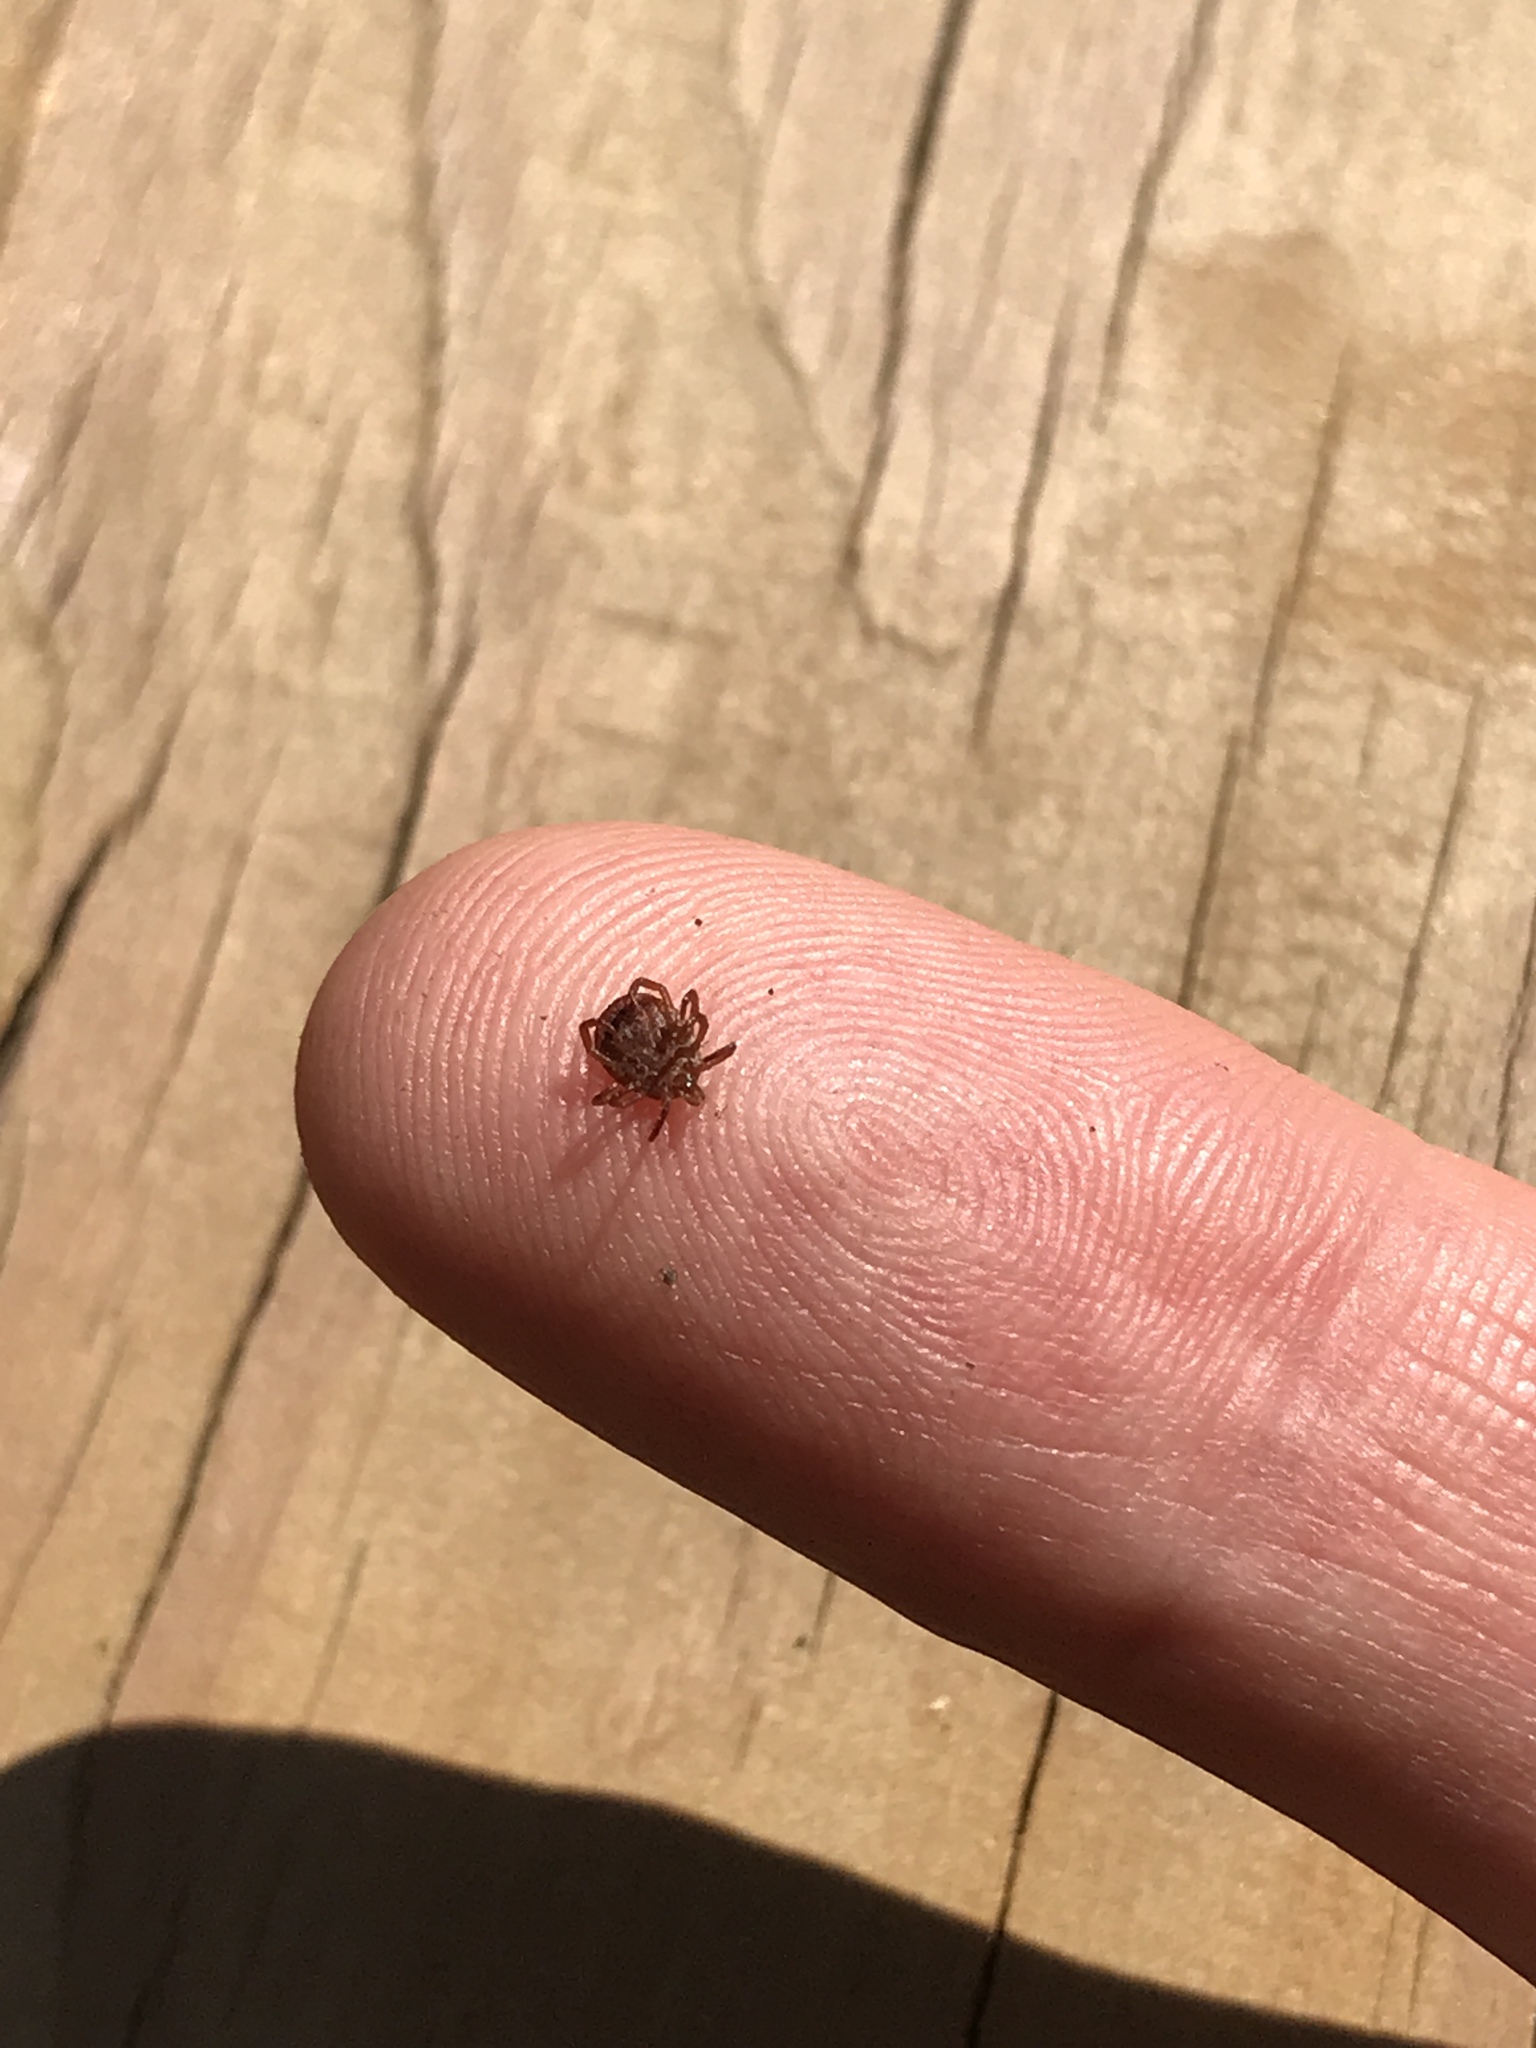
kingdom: Animalia
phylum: Arthropoda
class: Arachnida
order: Ixodida
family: Ixodidae
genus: Amblyomma
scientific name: Amblyomma americanum
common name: Lone star tick
